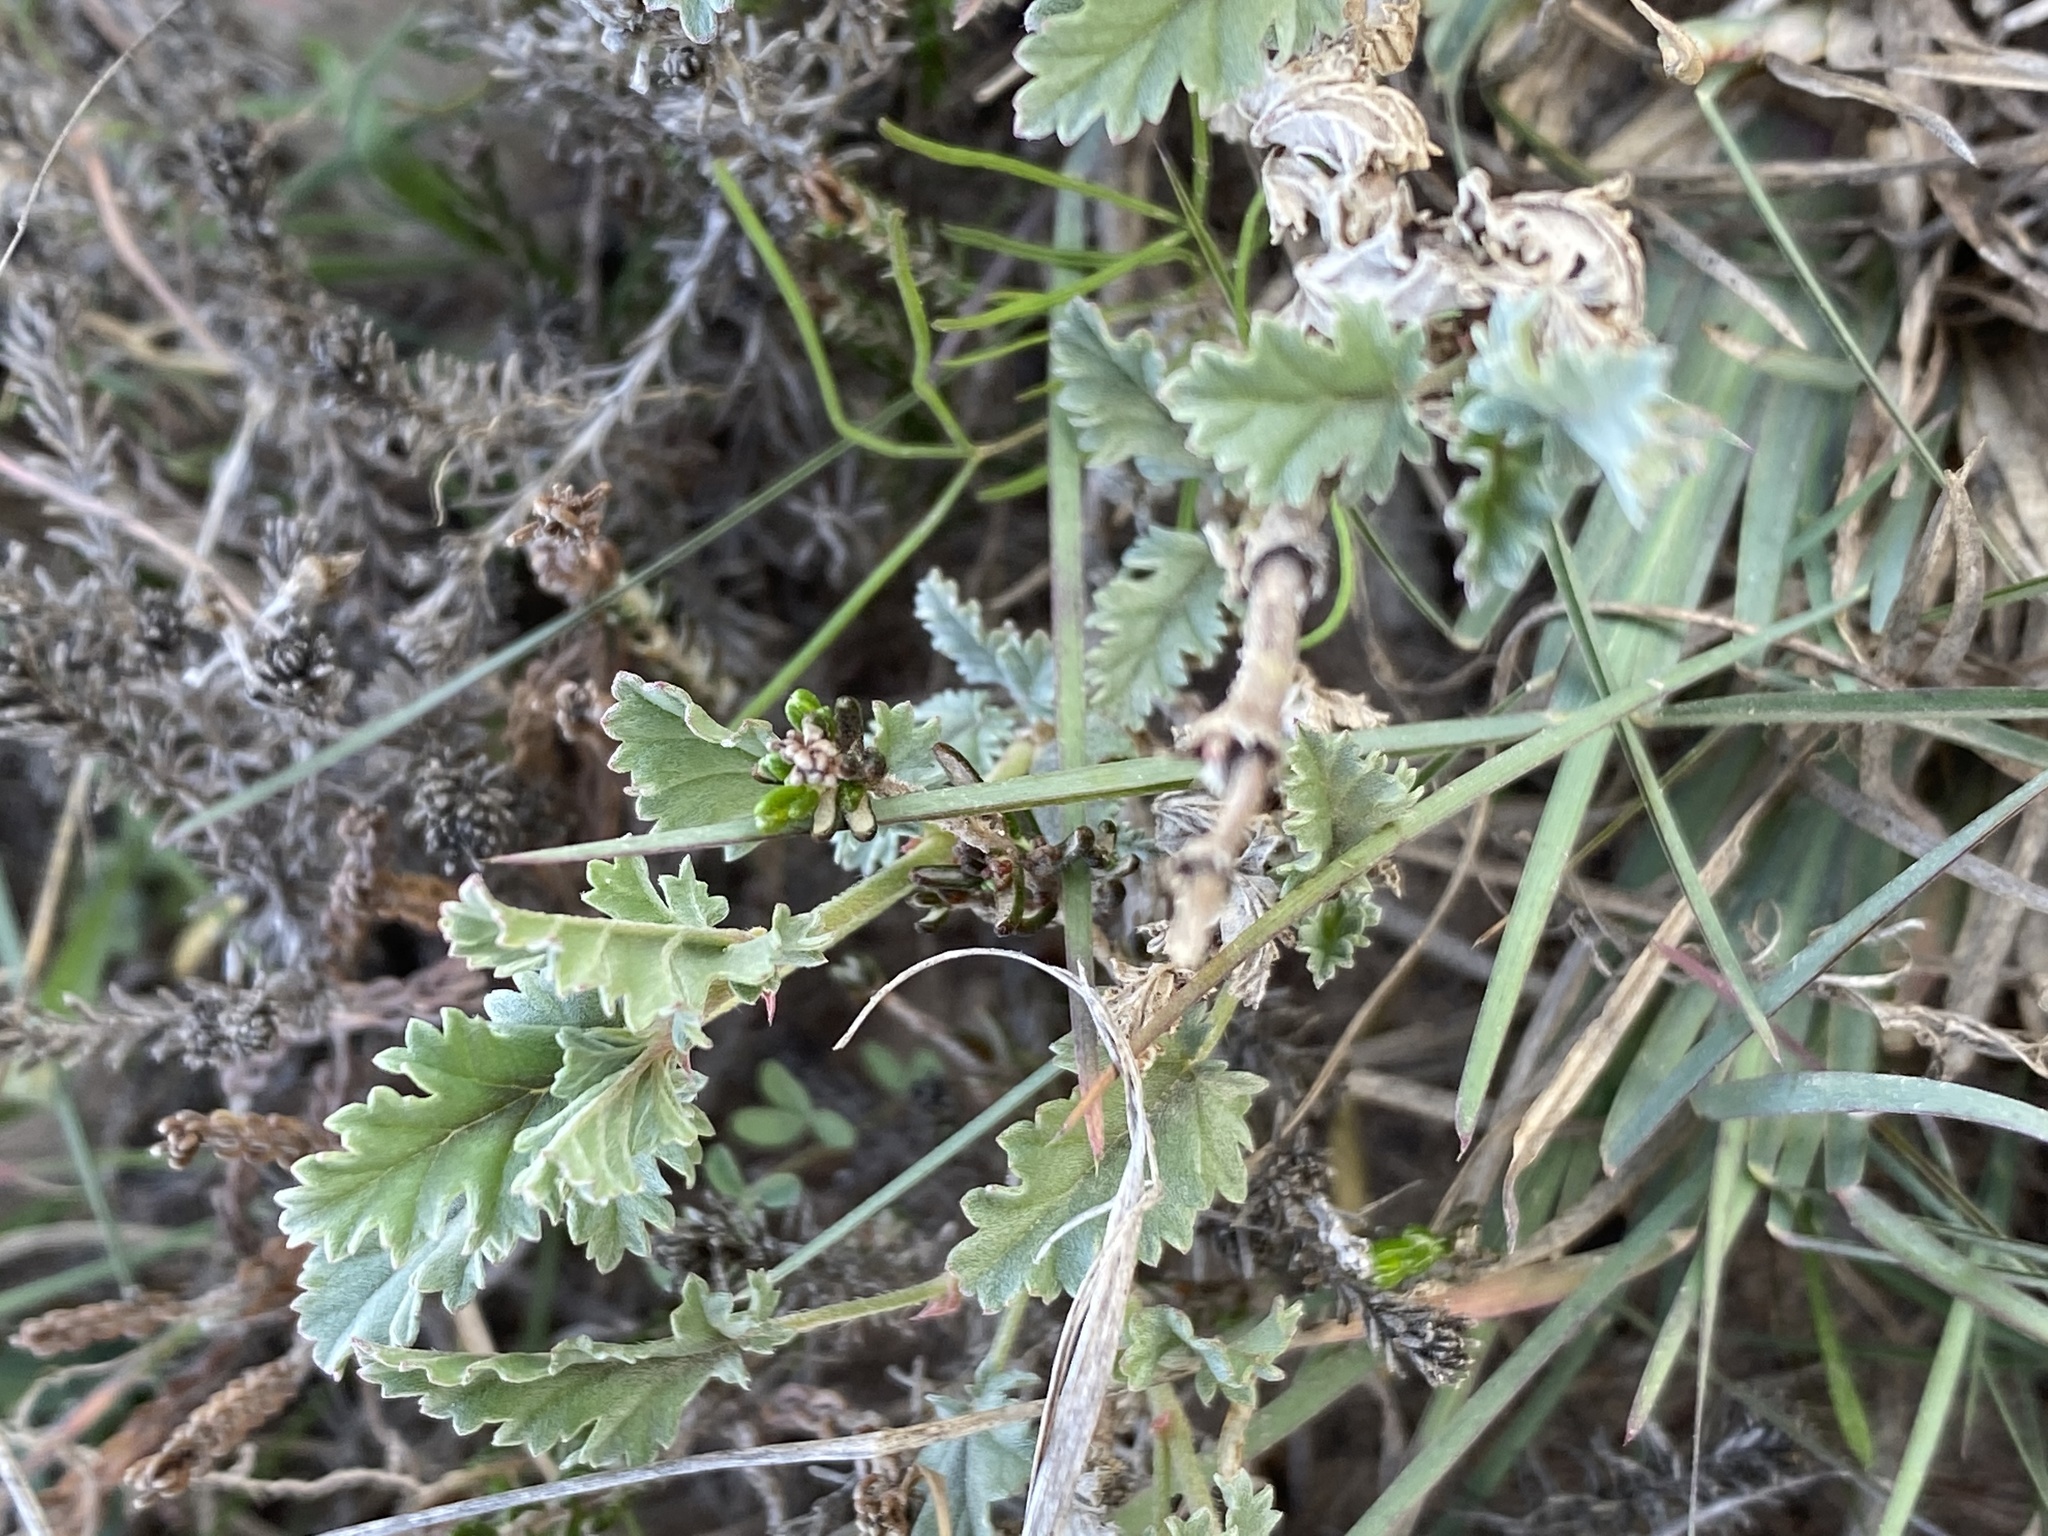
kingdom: Plantae
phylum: Tracheophyta
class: Magnoliopsida
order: Geraniales
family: Geraniaceae
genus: Pelargonium
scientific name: Pelargonium caucalifolium
